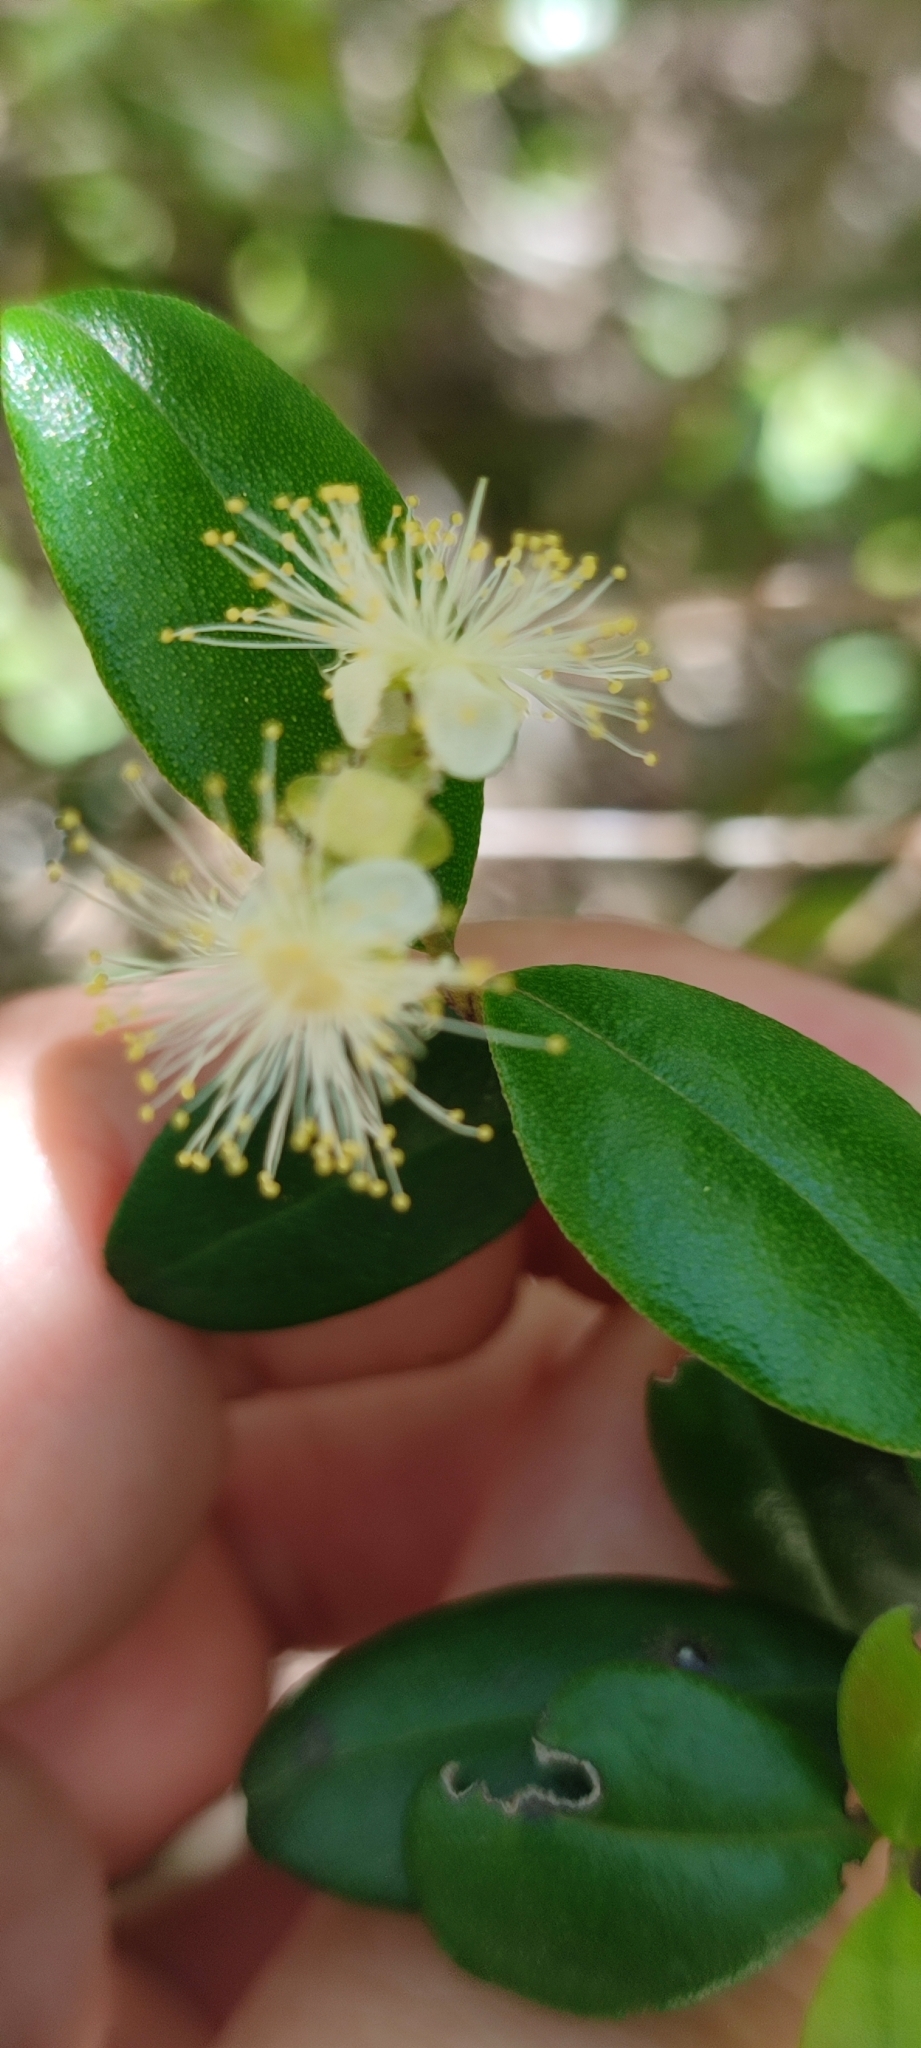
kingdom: Plantae
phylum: Tracheophyta
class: Magnoliopsida
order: Myrtales
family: Myrtaceae
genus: Myrcianthes
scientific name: Myrcianthes fragrans
